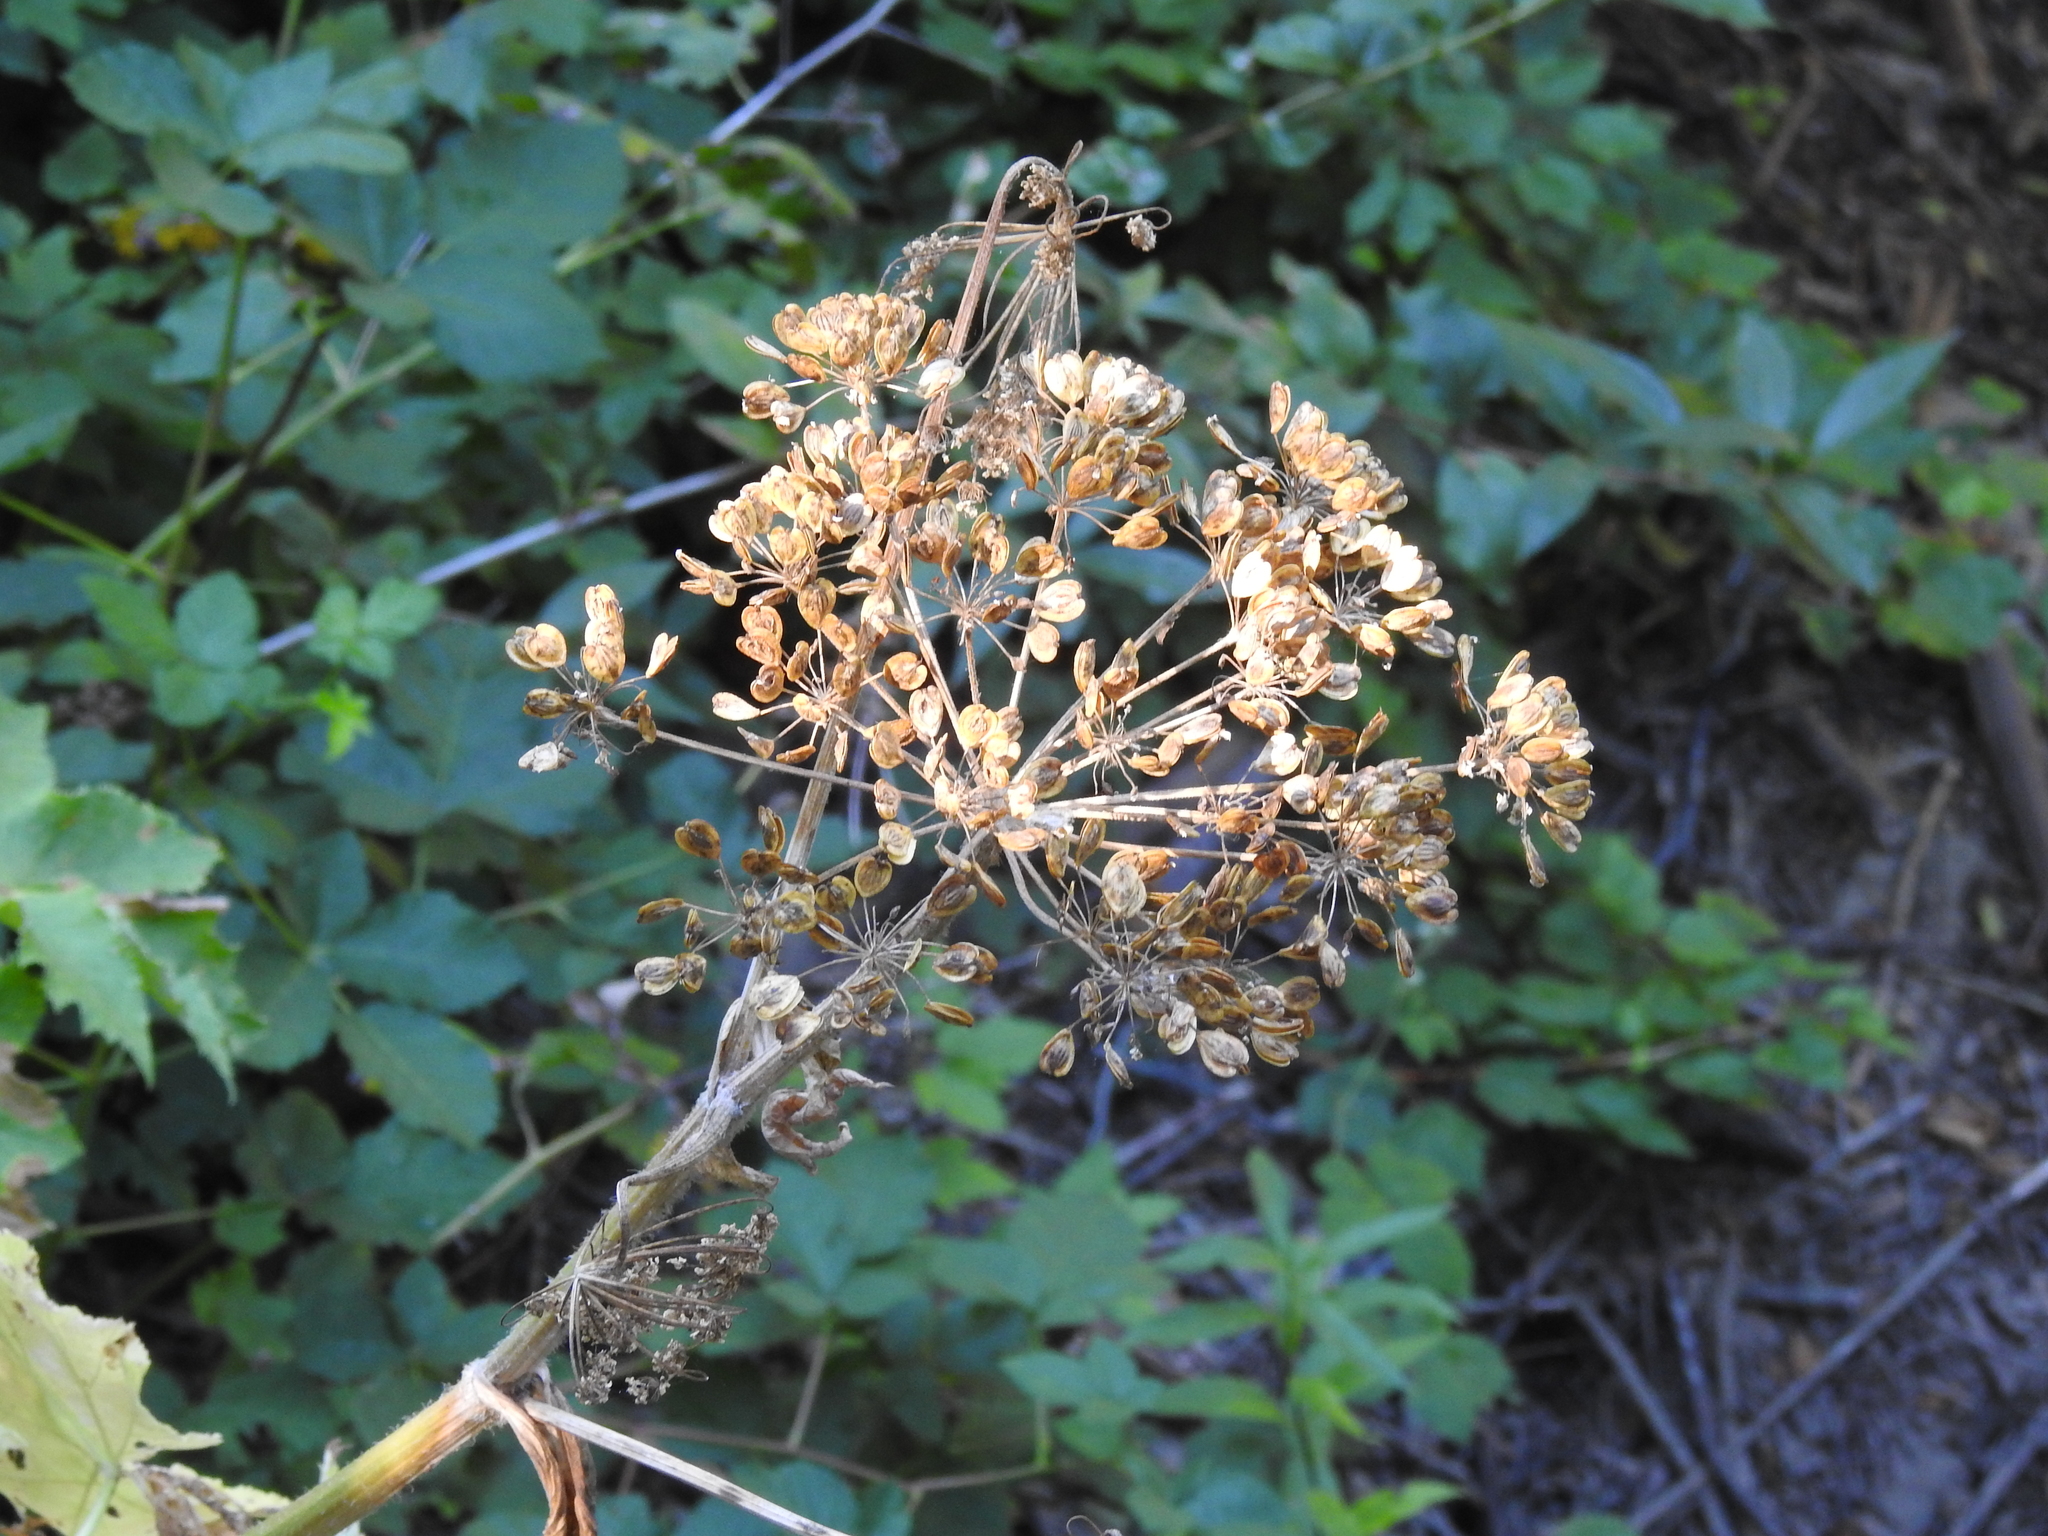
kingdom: Plantae
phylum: Tracheophyta
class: Magnoliopsida
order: Apiales
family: Apiaceae
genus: Heracleum
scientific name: Heracleum maximum
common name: American cow parsnip
